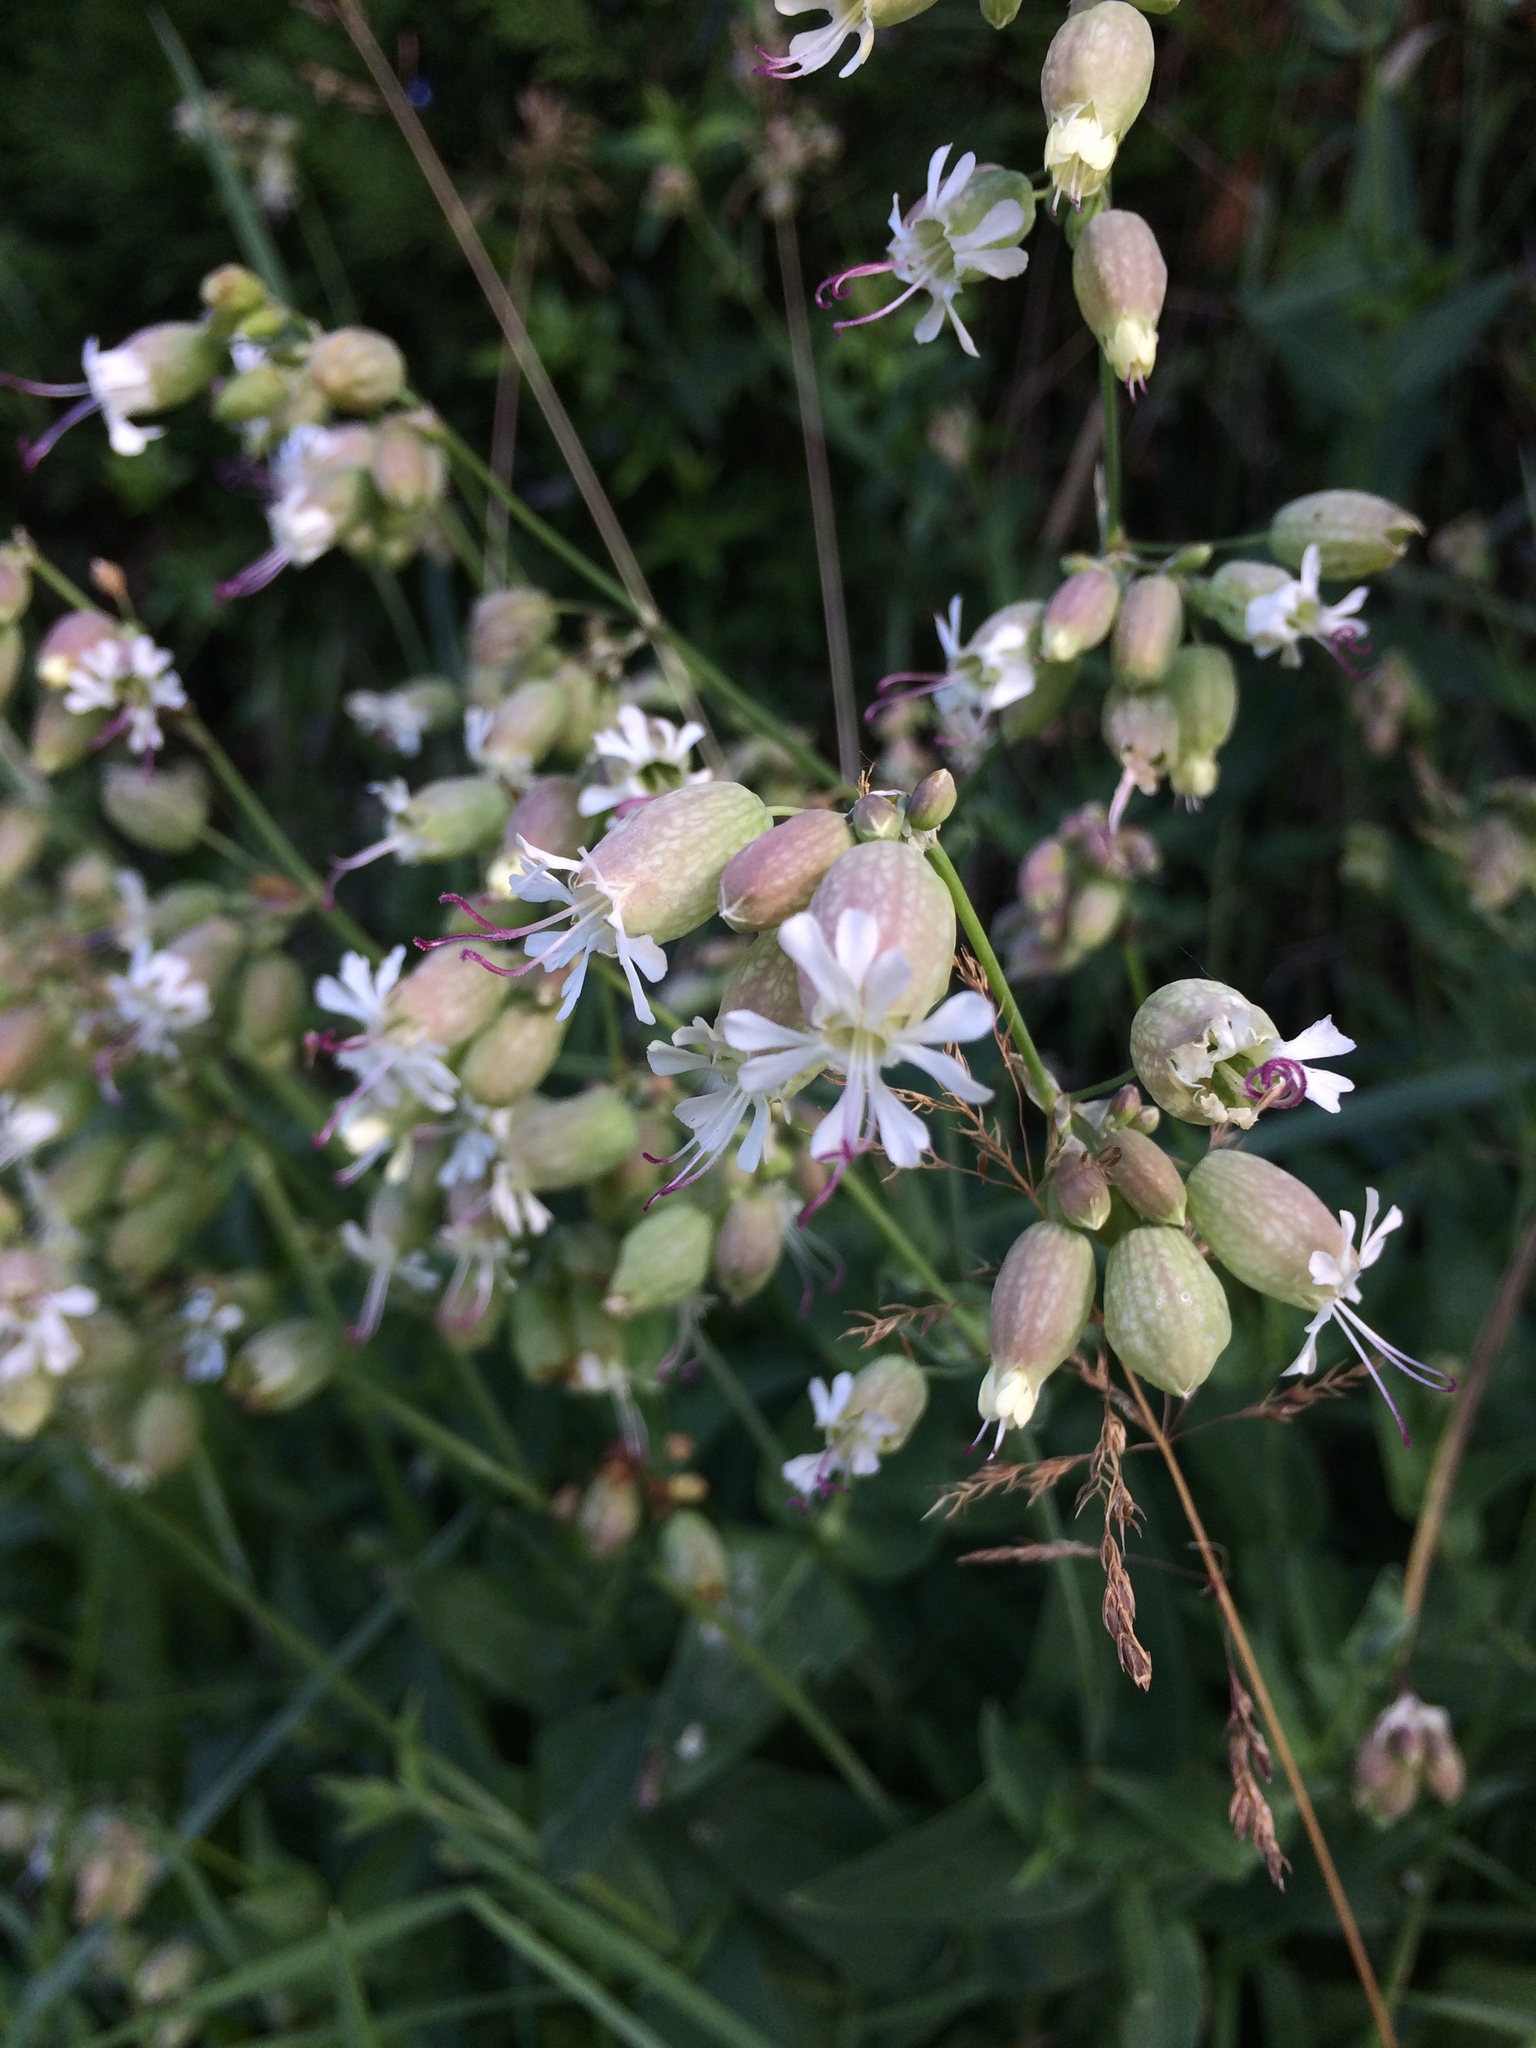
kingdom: Plantae
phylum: Tracheophyta
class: Magnoliopsida
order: Caryophyllales
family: Caryophyllaceae
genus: Silene
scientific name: Silene vulgaris
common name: Bladder campion
